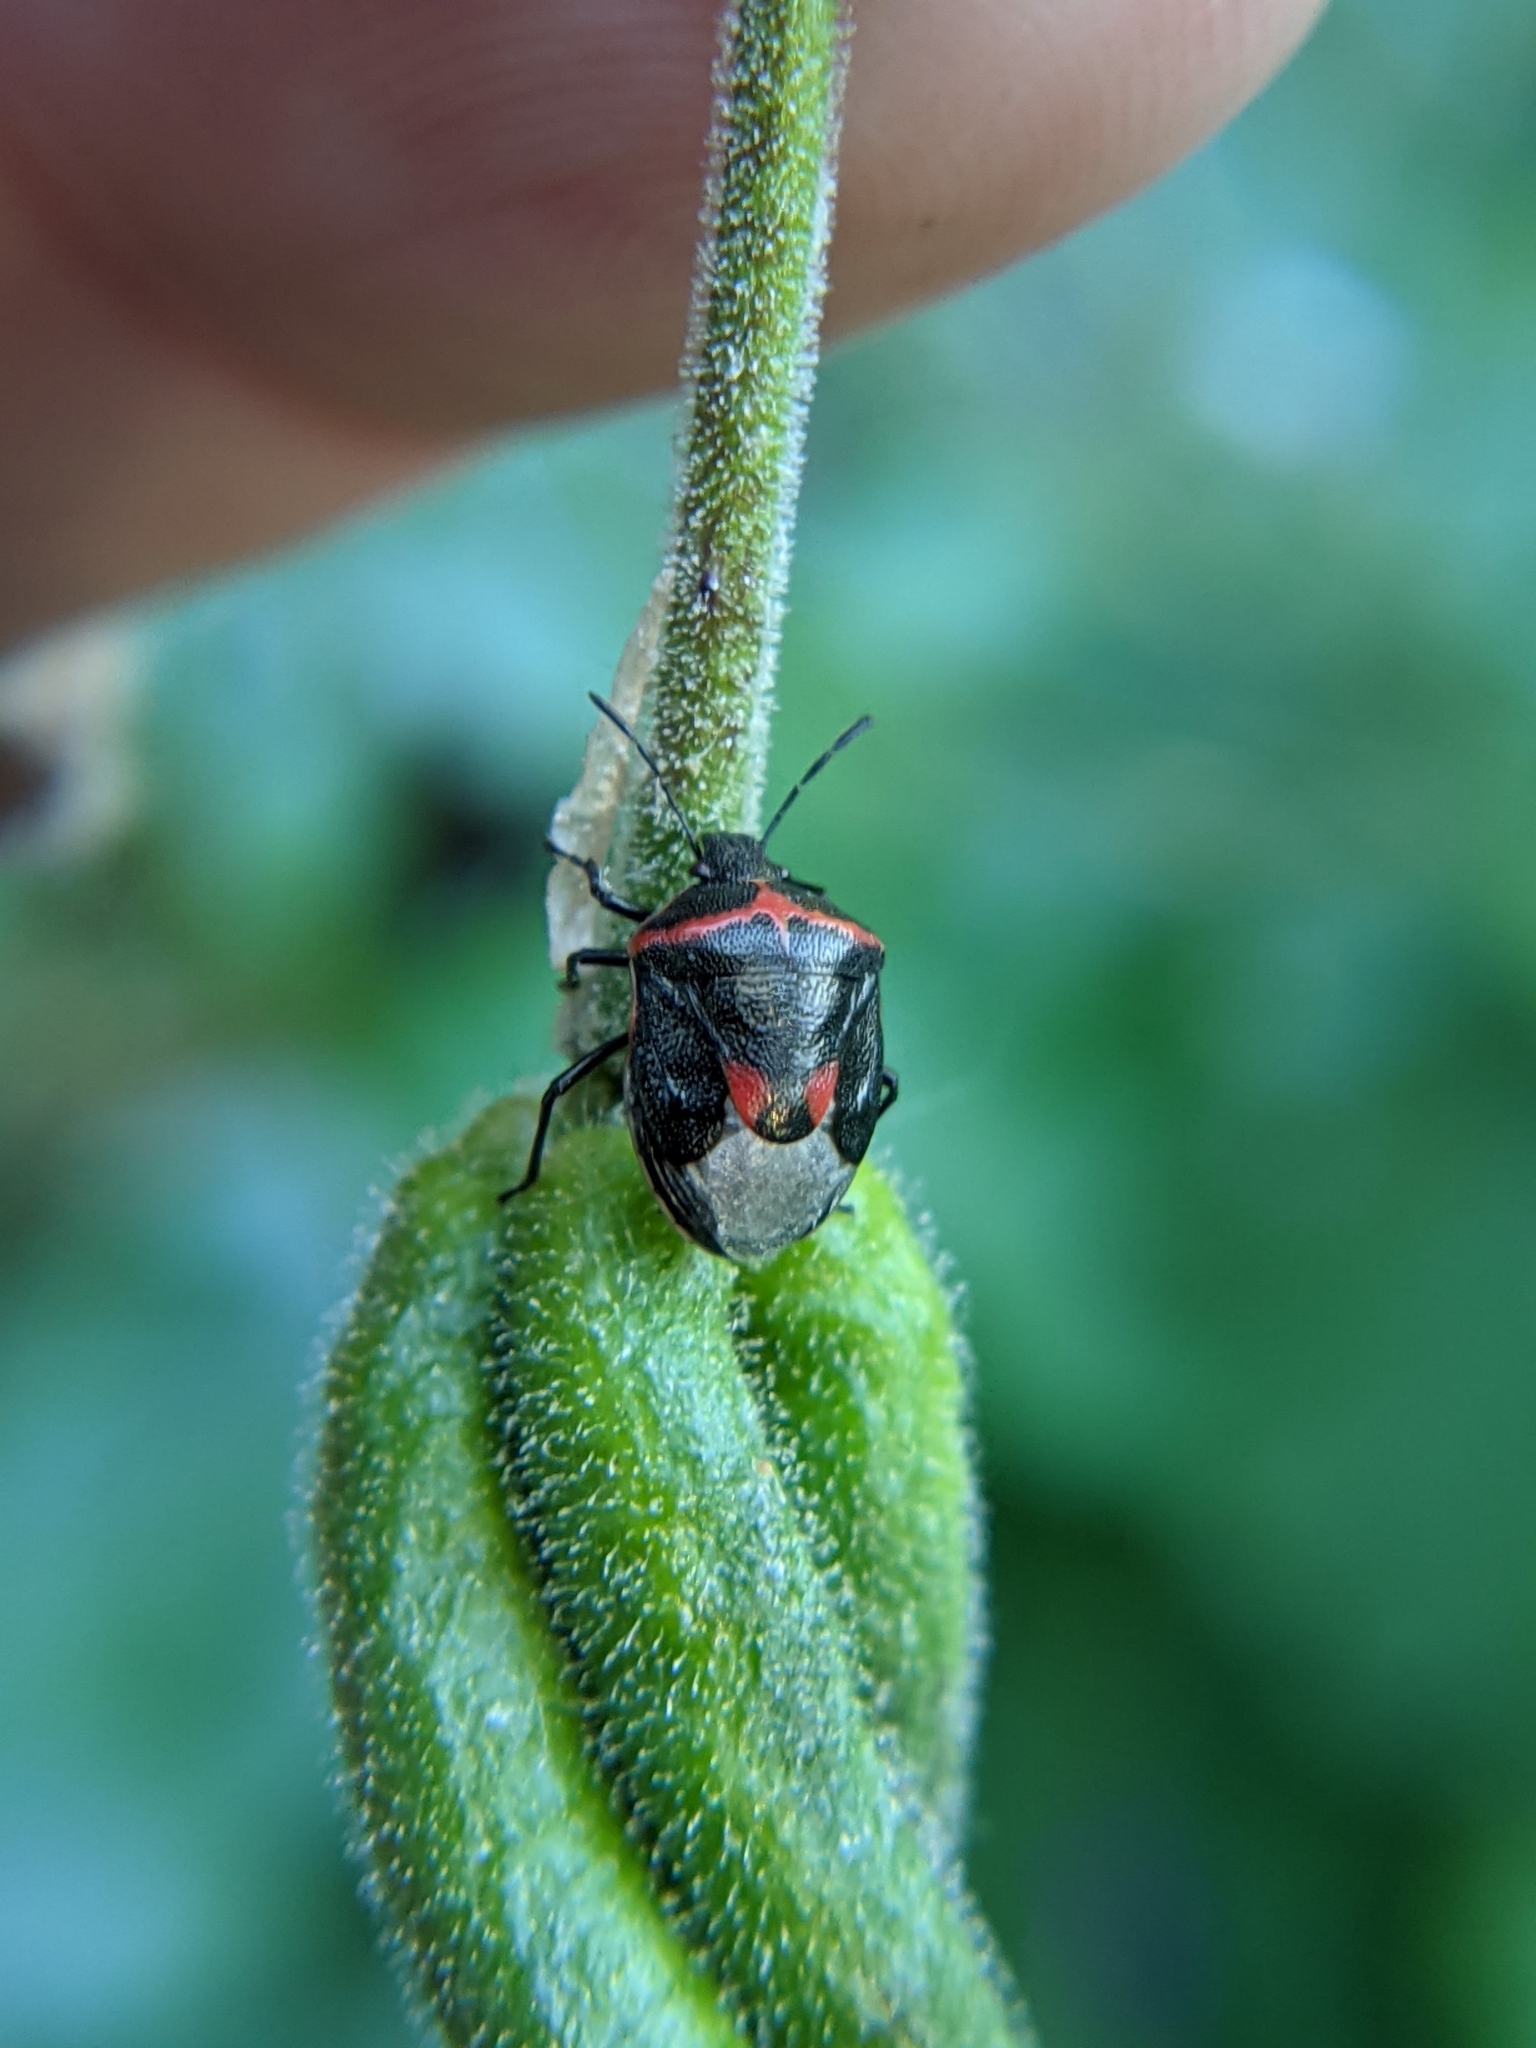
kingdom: Animalia
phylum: Arthropoda
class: Insecta
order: Hemiptera
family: Pentatomidae
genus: Cosmopepla
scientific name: Cosmopepla lintneriana
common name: Twice-stabbed stink bug
